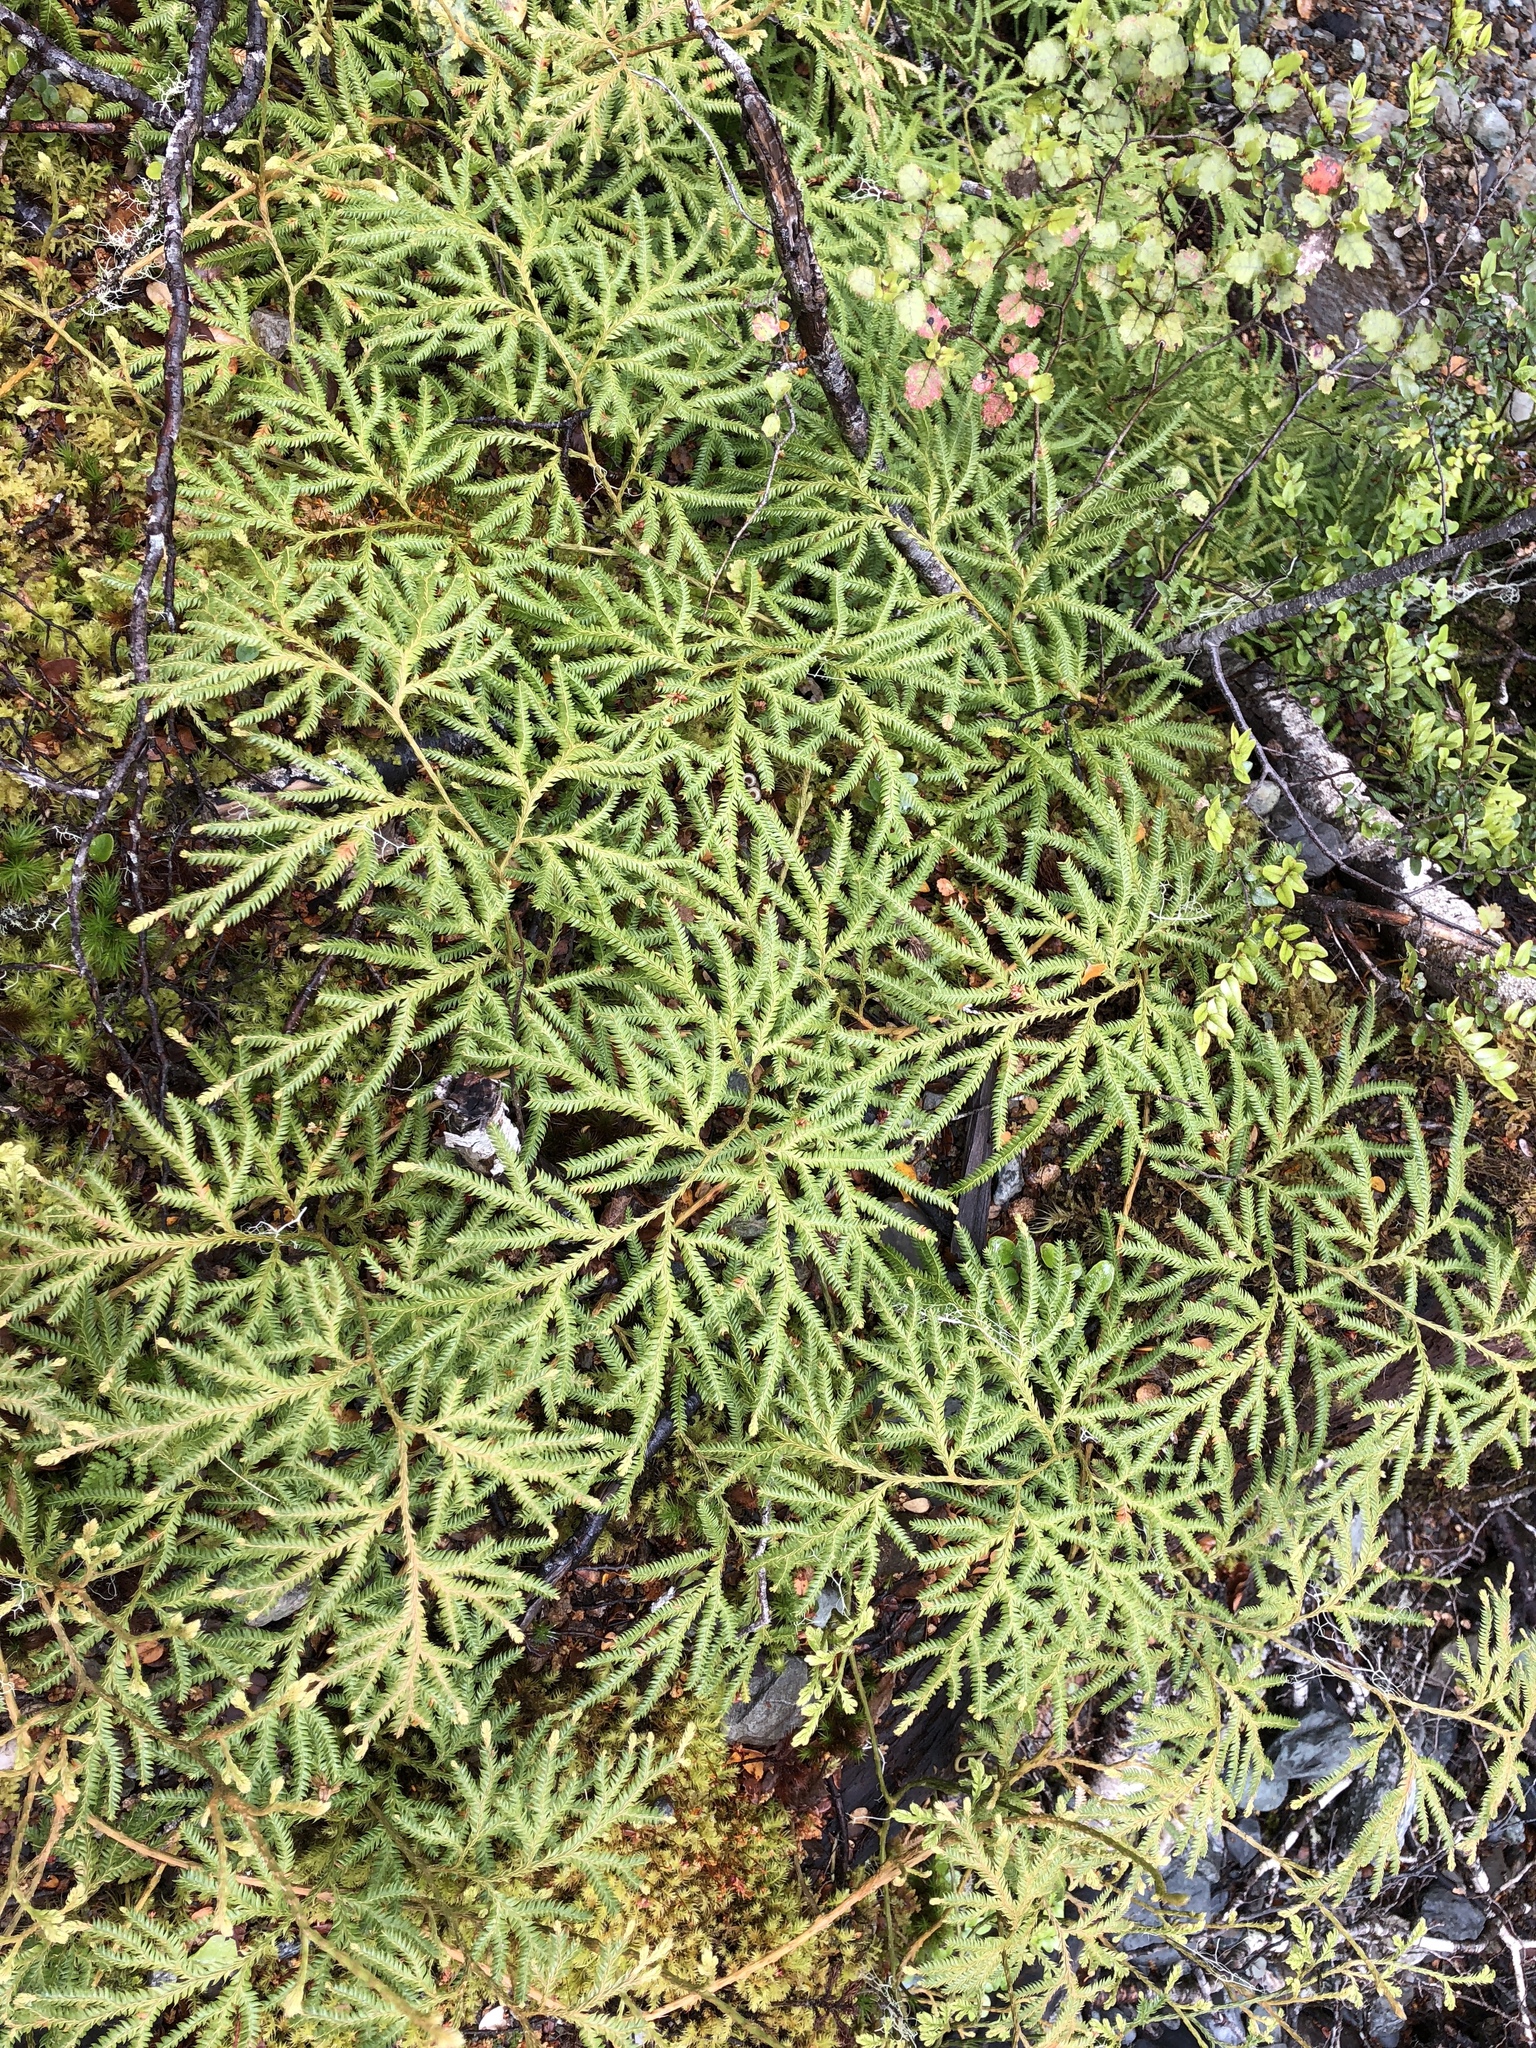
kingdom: Plantae
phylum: Tracheophyta
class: Lycopodiopsida
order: Lycopodiales
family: Lycopodiaceae
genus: Lycopodium
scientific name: Lycopodium volubile
